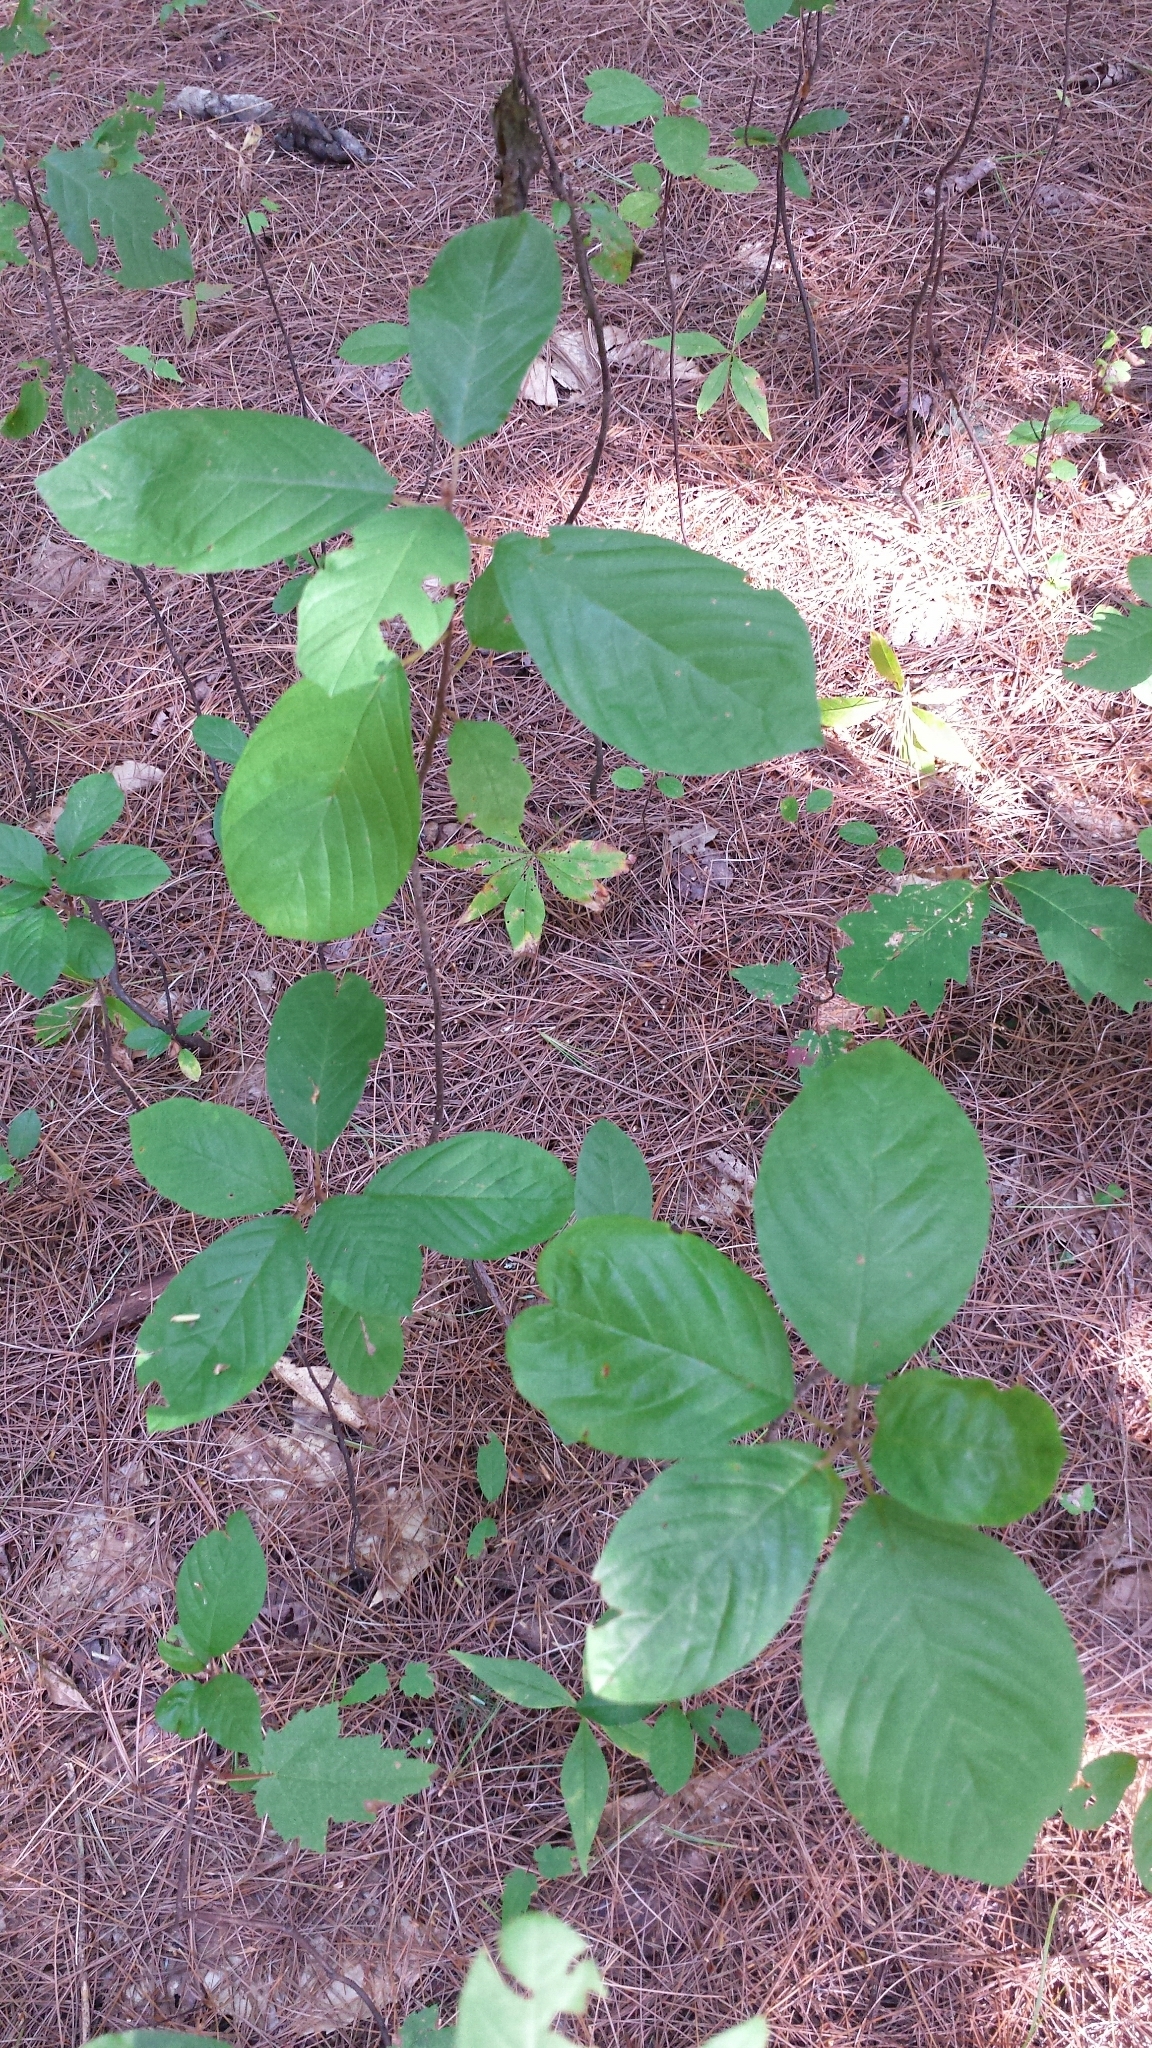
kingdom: Plantae
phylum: Tracheophyta
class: Magnoliopsida
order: Rosales
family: Rhamnaceae
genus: Frangula
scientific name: Frangula alnus
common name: Alder buckthorn
